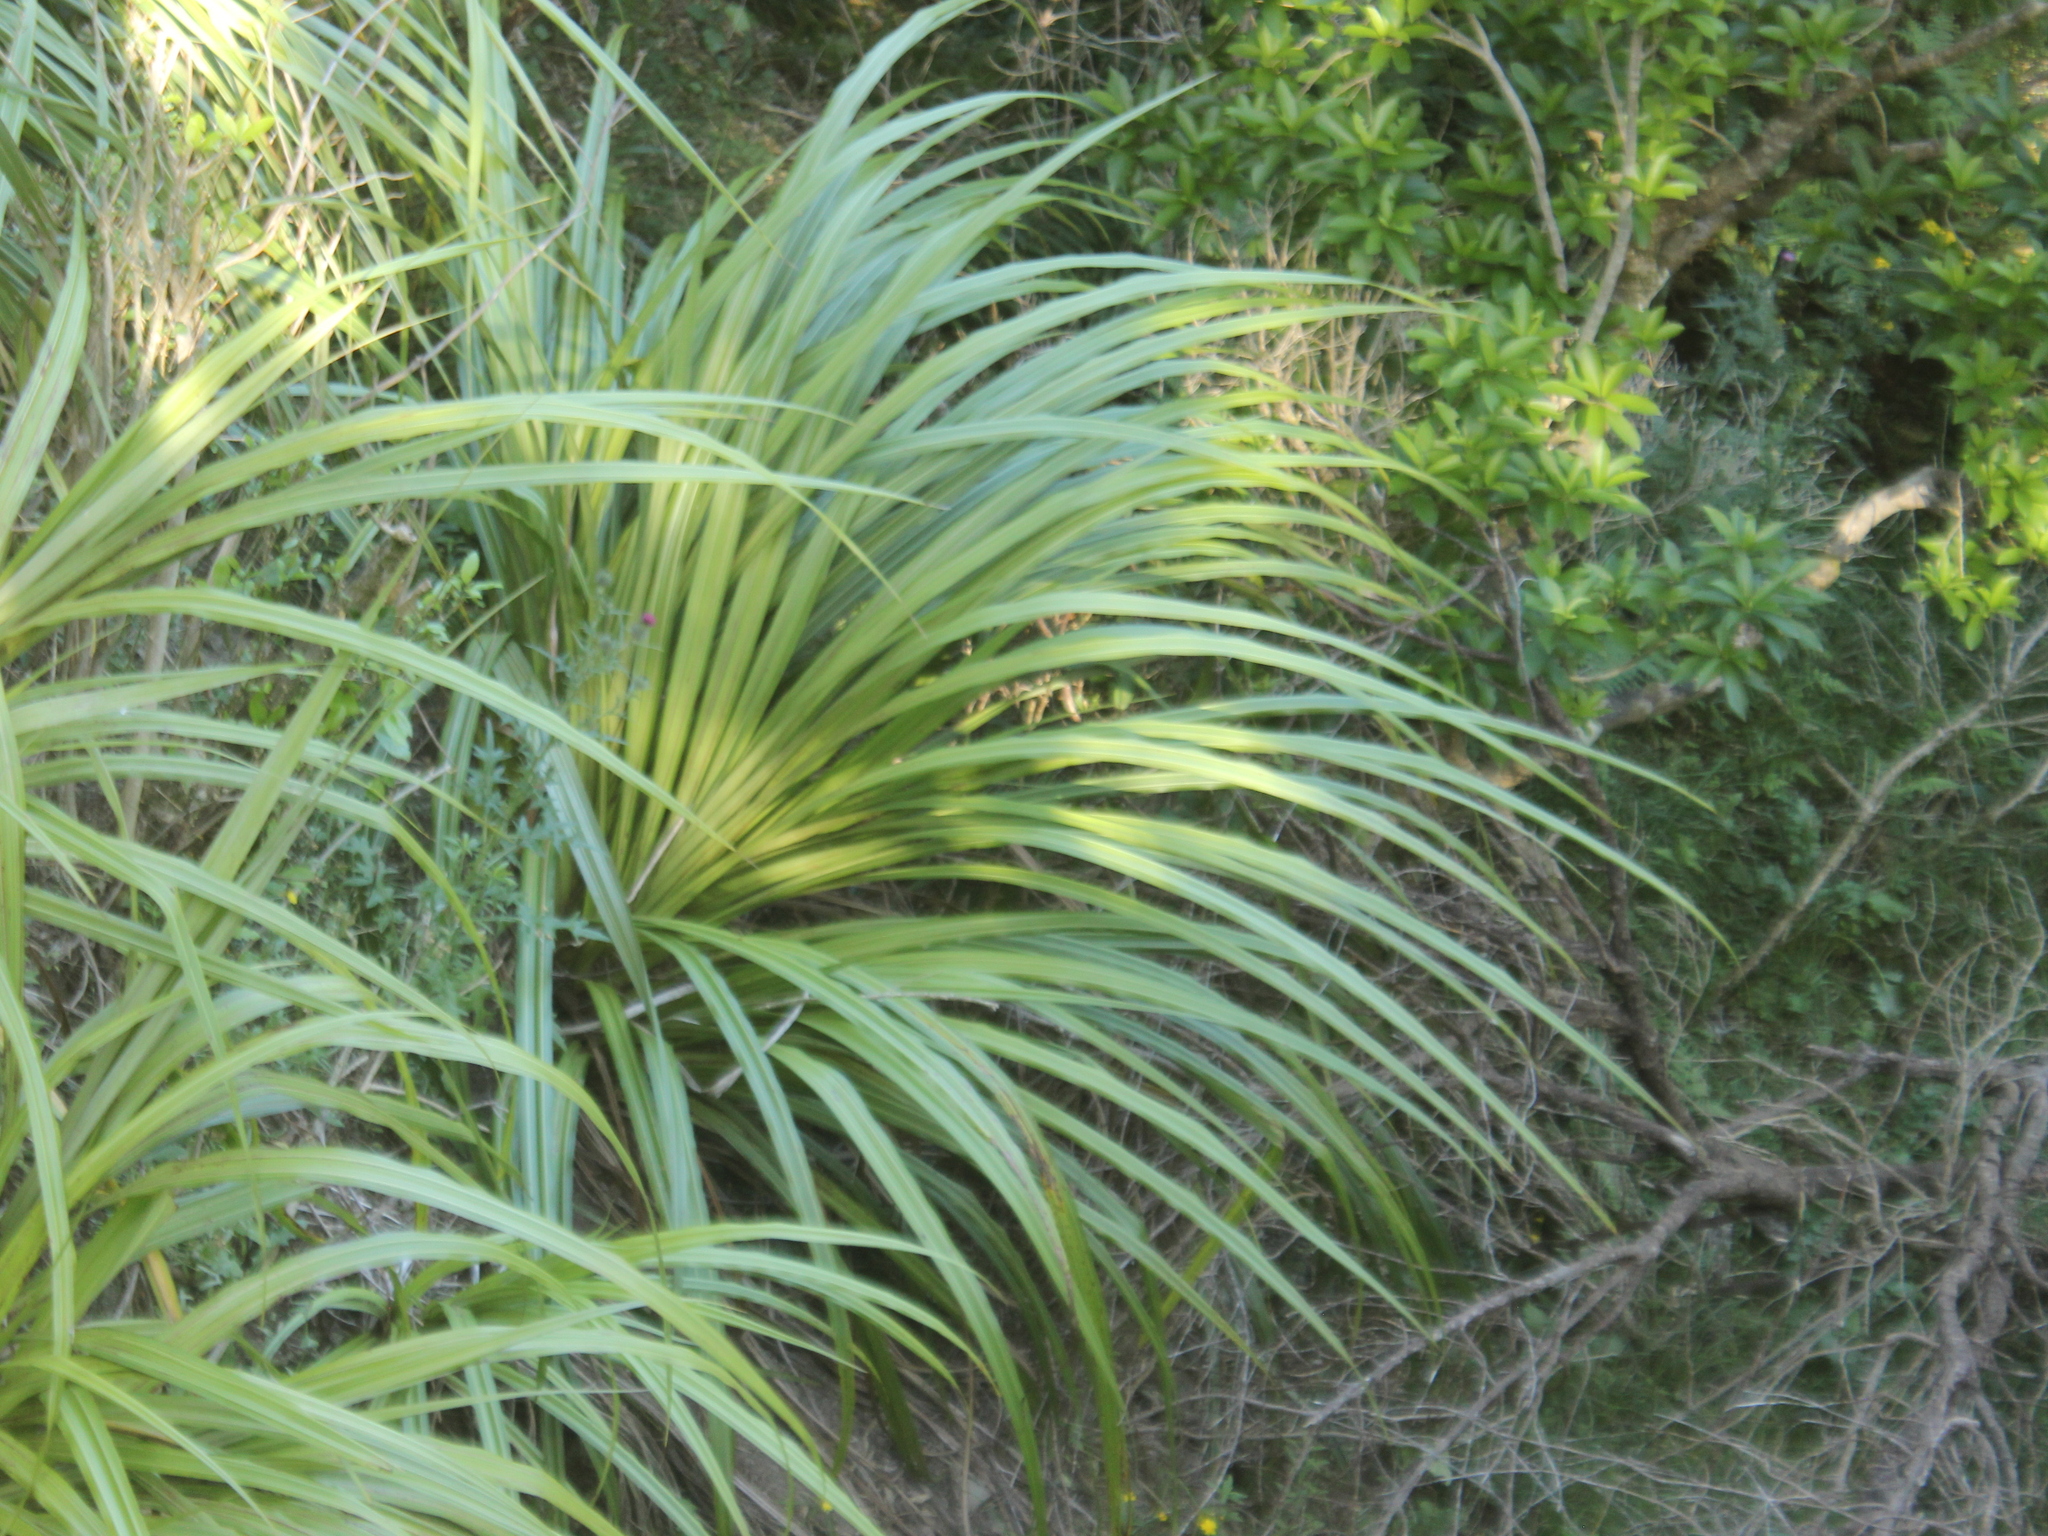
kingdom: Plantae
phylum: Tracheophyta
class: Liliopsida
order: Asparagales
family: Asteliaceae
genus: Astelia
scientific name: Astelia fragrans
